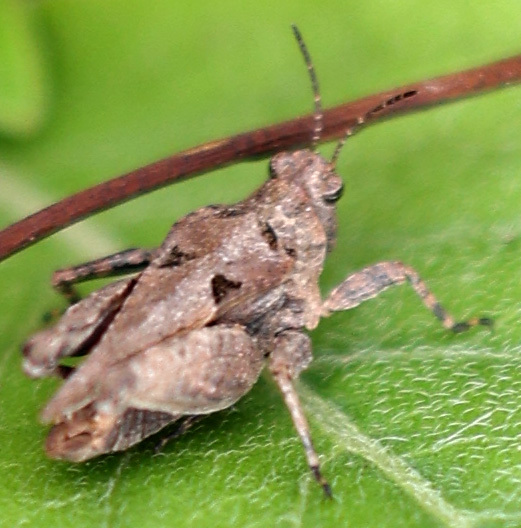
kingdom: Animalia
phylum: Arthropoda
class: Insecta
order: Orthoptera
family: Tetrigidae
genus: Nomotettix
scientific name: Nomotettix cristatus
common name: Crested grouse locust
